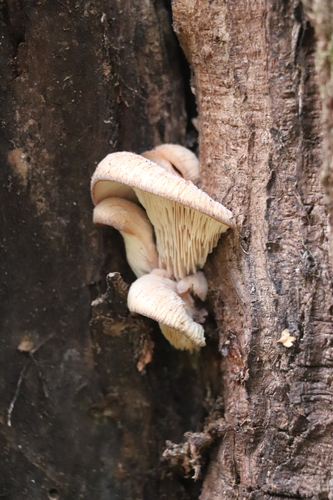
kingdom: Fungi
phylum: Basidiomycota
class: Agaricomycetes
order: Russulales
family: Auriscalpiaceae
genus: Lentinellus
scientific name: Lentinellus ursinus
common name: Bear lentinus
